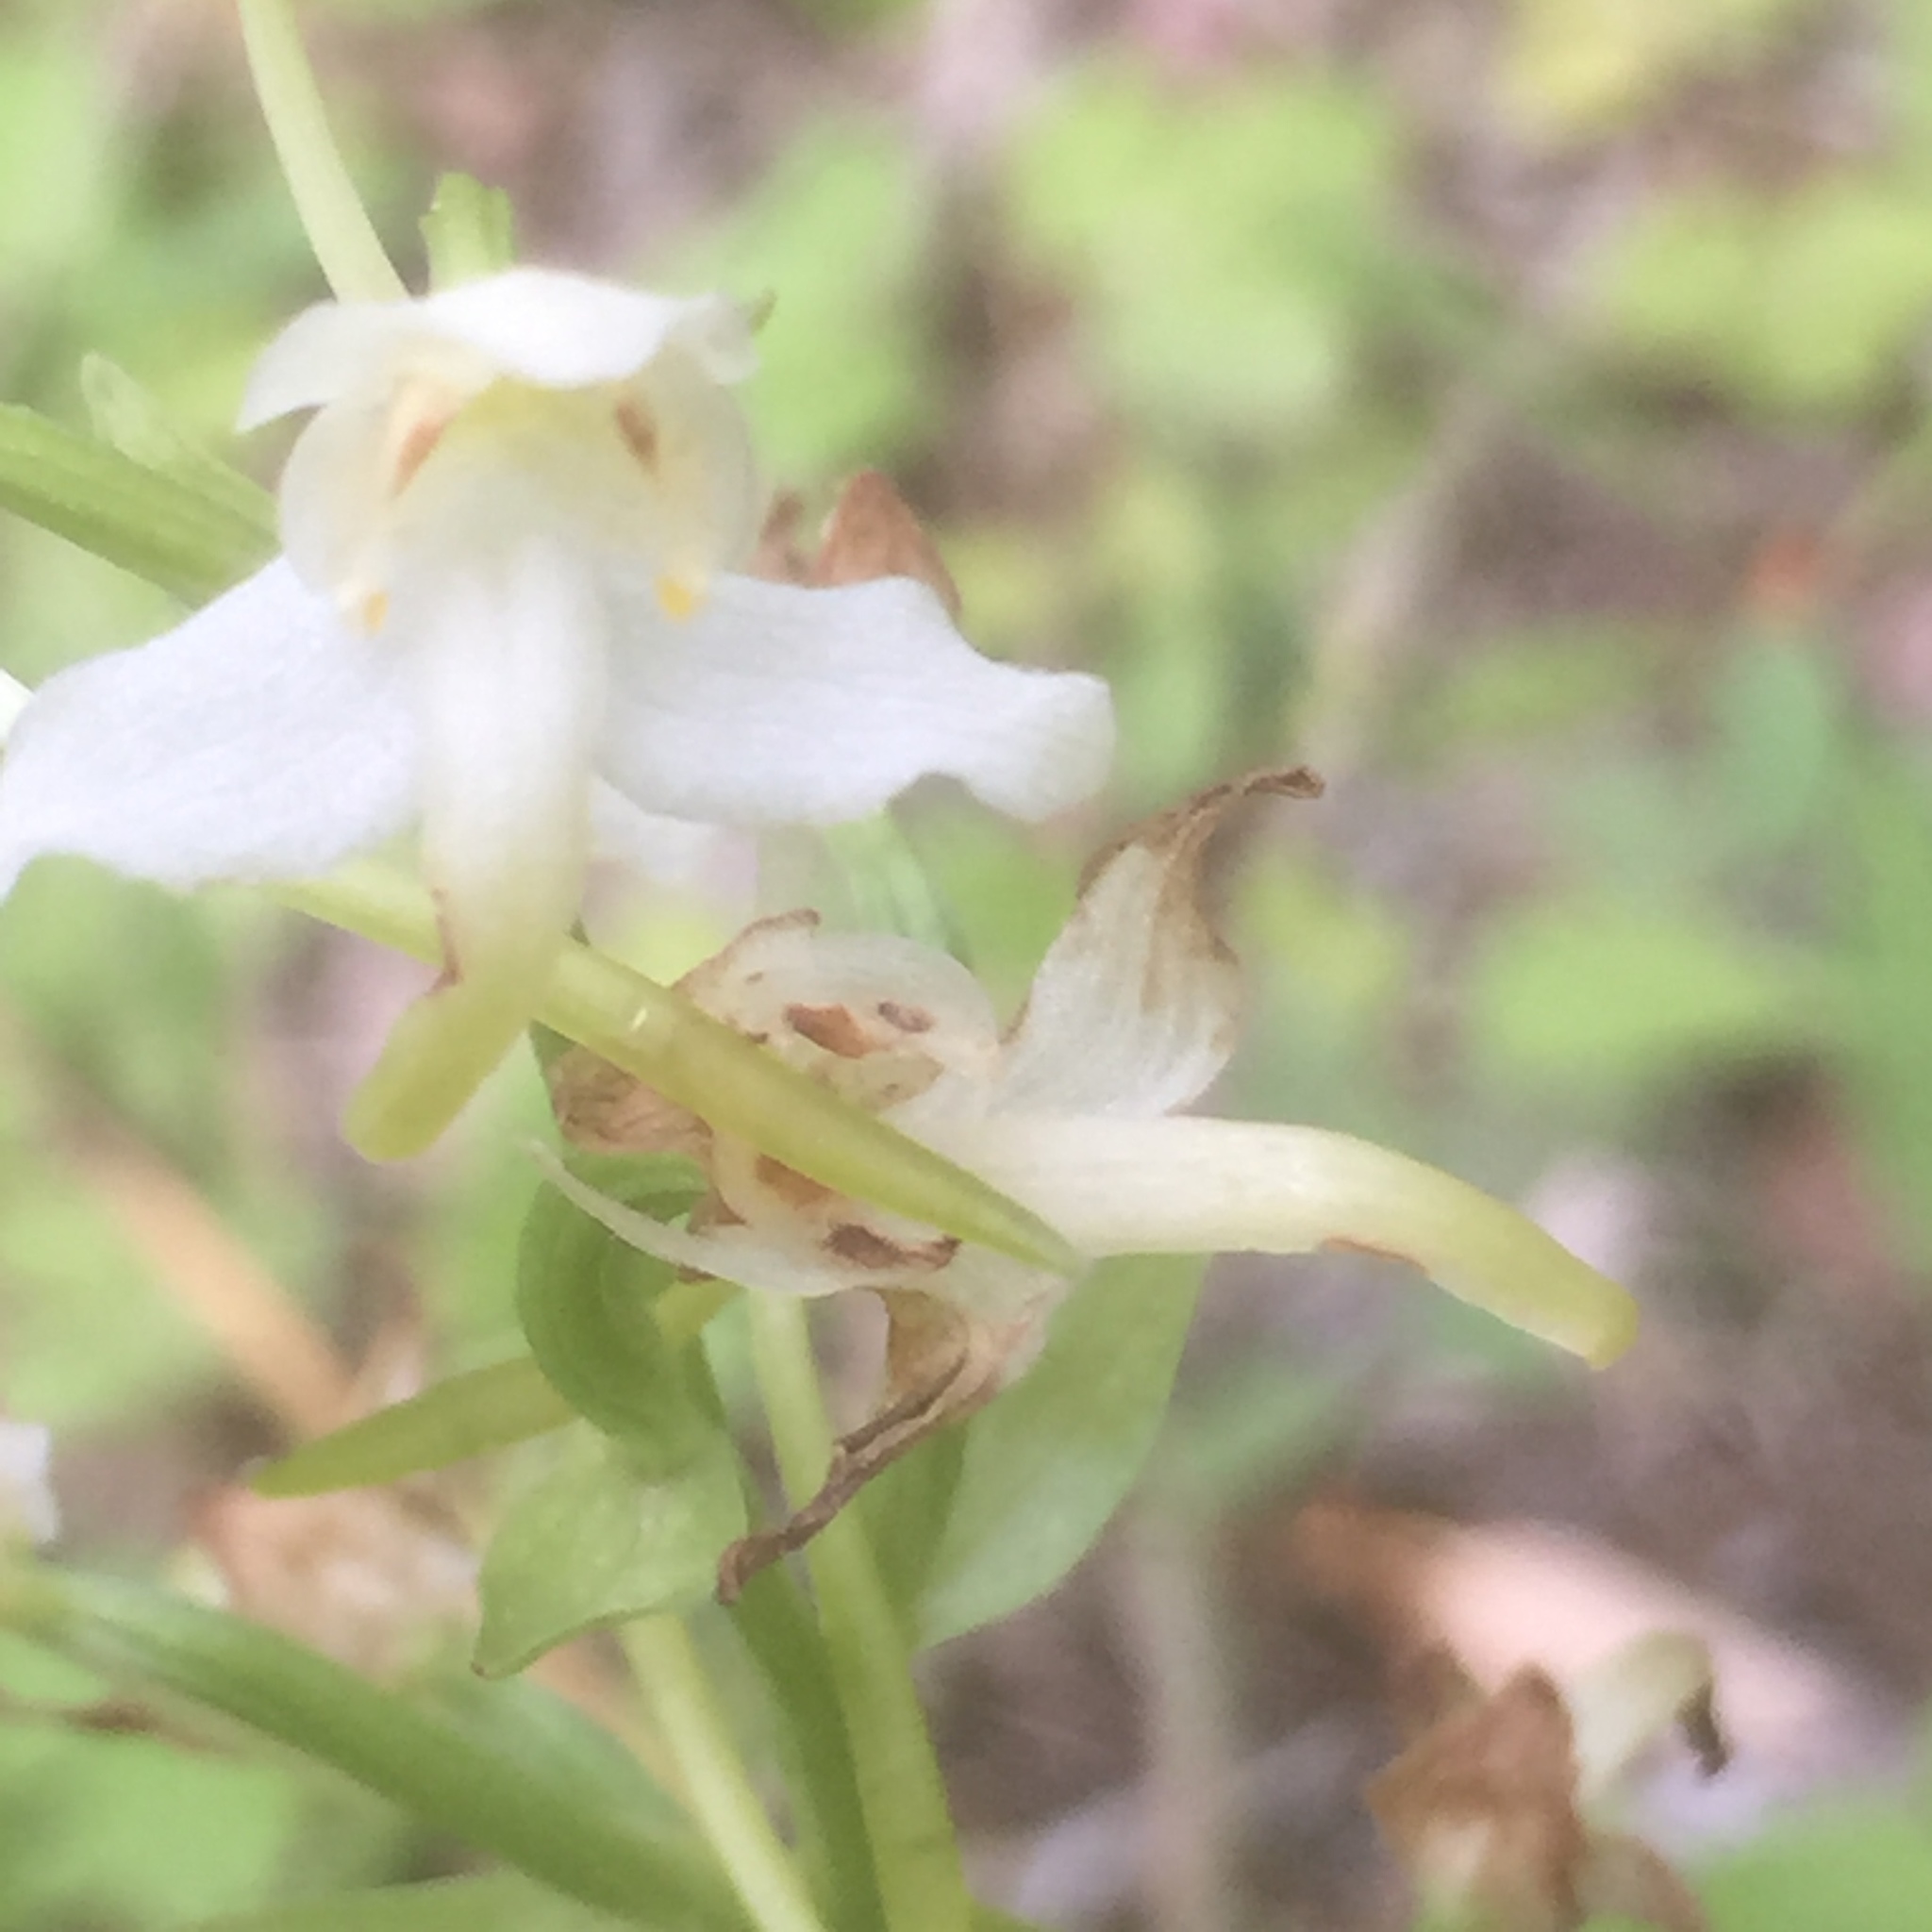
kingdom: Plantae
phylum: Tracheophyta
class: Liliopsida
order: Asparagales
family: Orchidaceae
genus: Platanthera
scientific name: Platanthera chlorantha
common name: Greater butterfly-orchid
